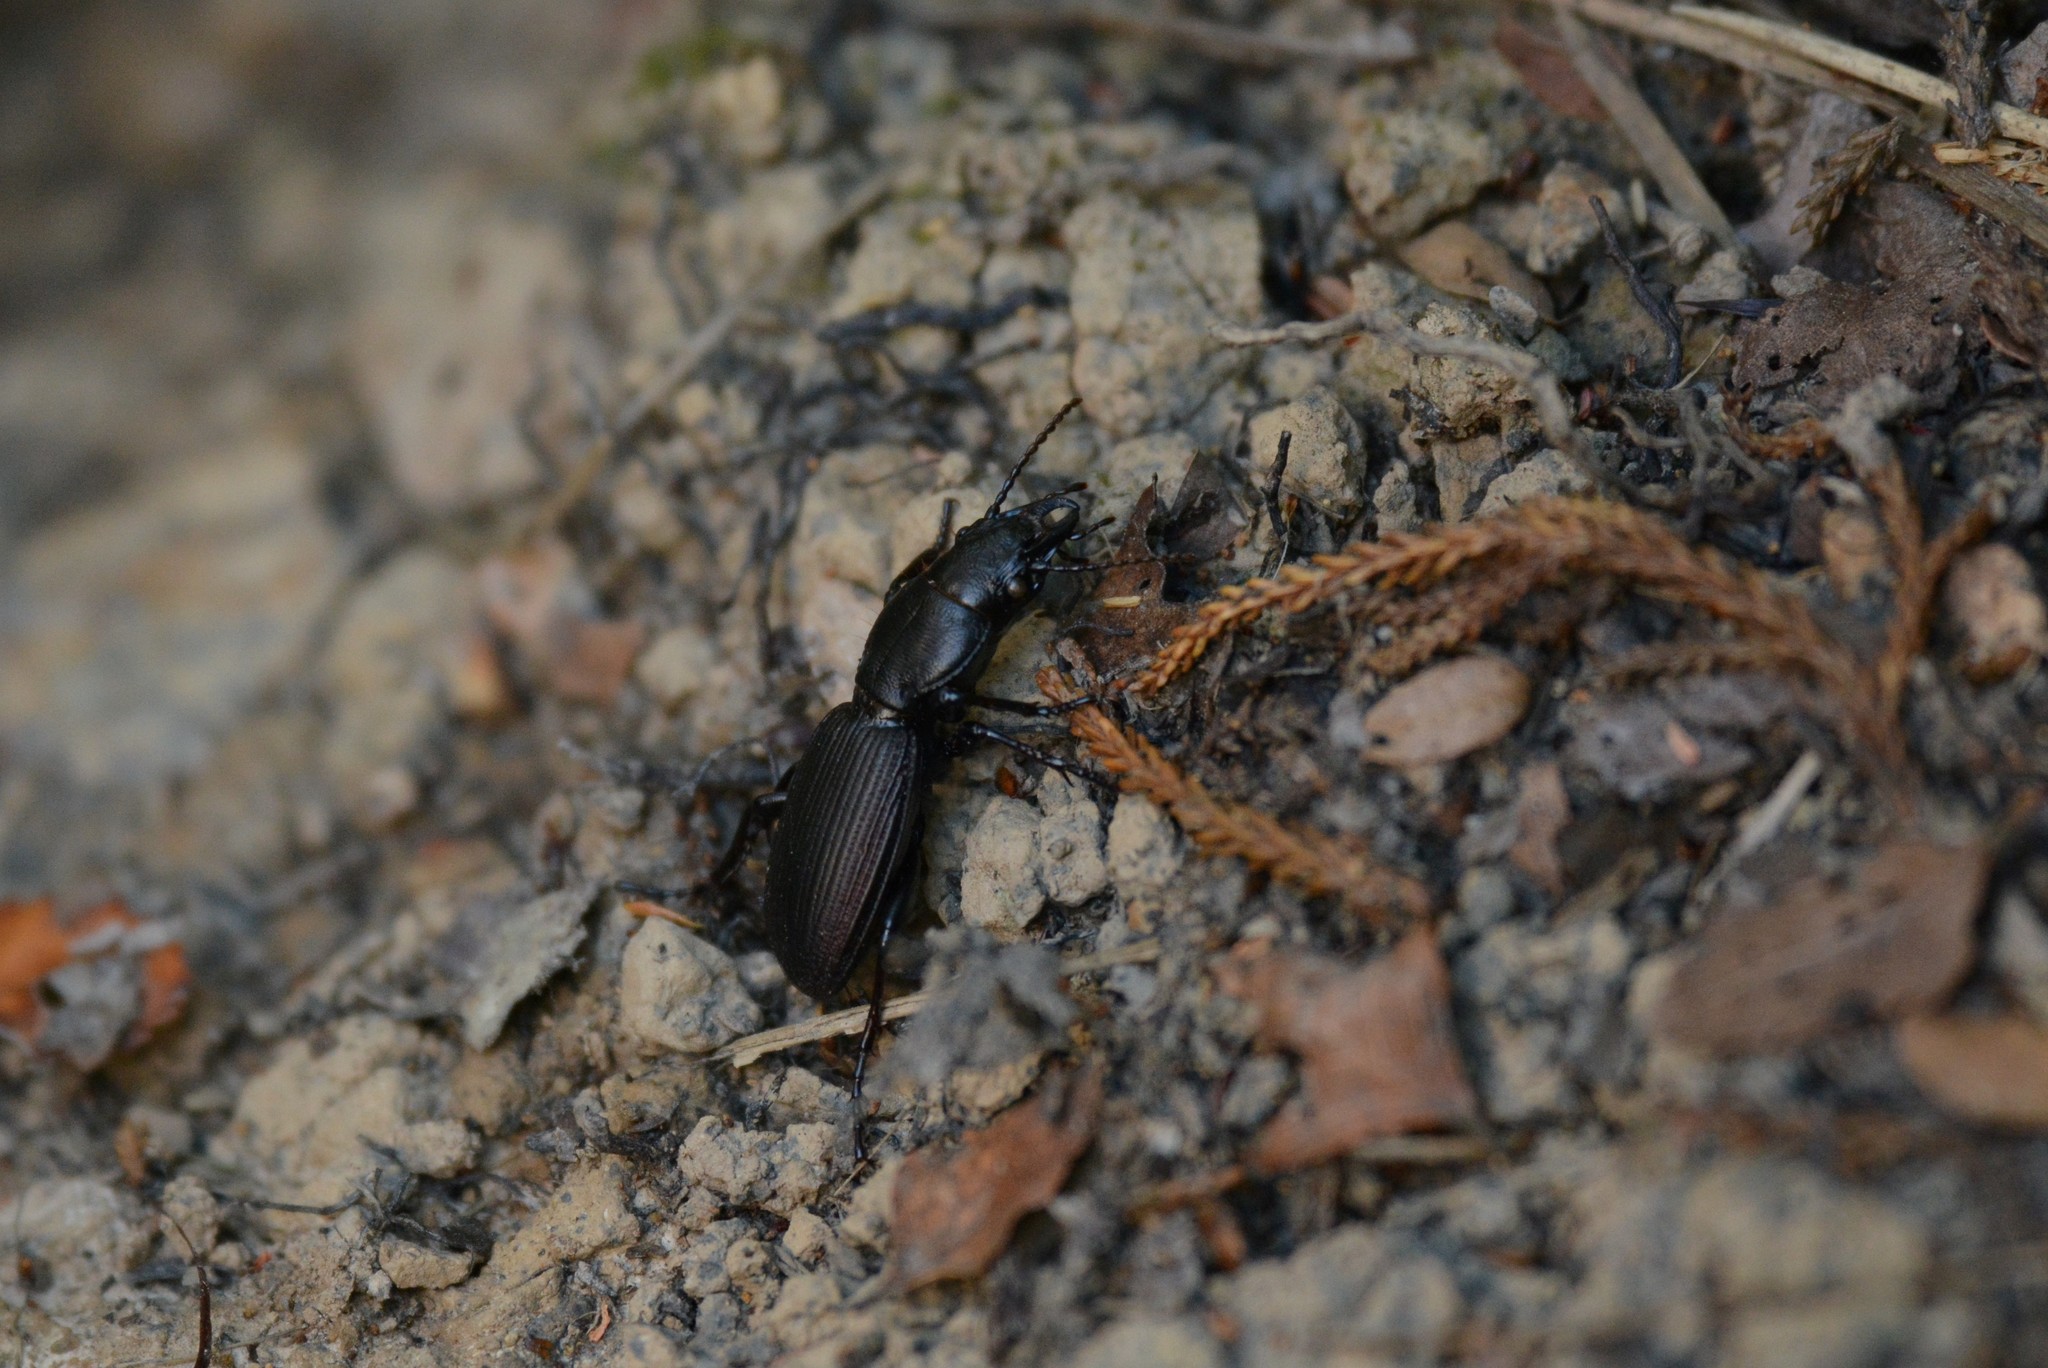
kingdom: Animalia
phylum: Arthropoda
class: Insecta
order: Coleoptera
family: Carabidae
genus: Mecodema
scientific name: Mecodema simplex
